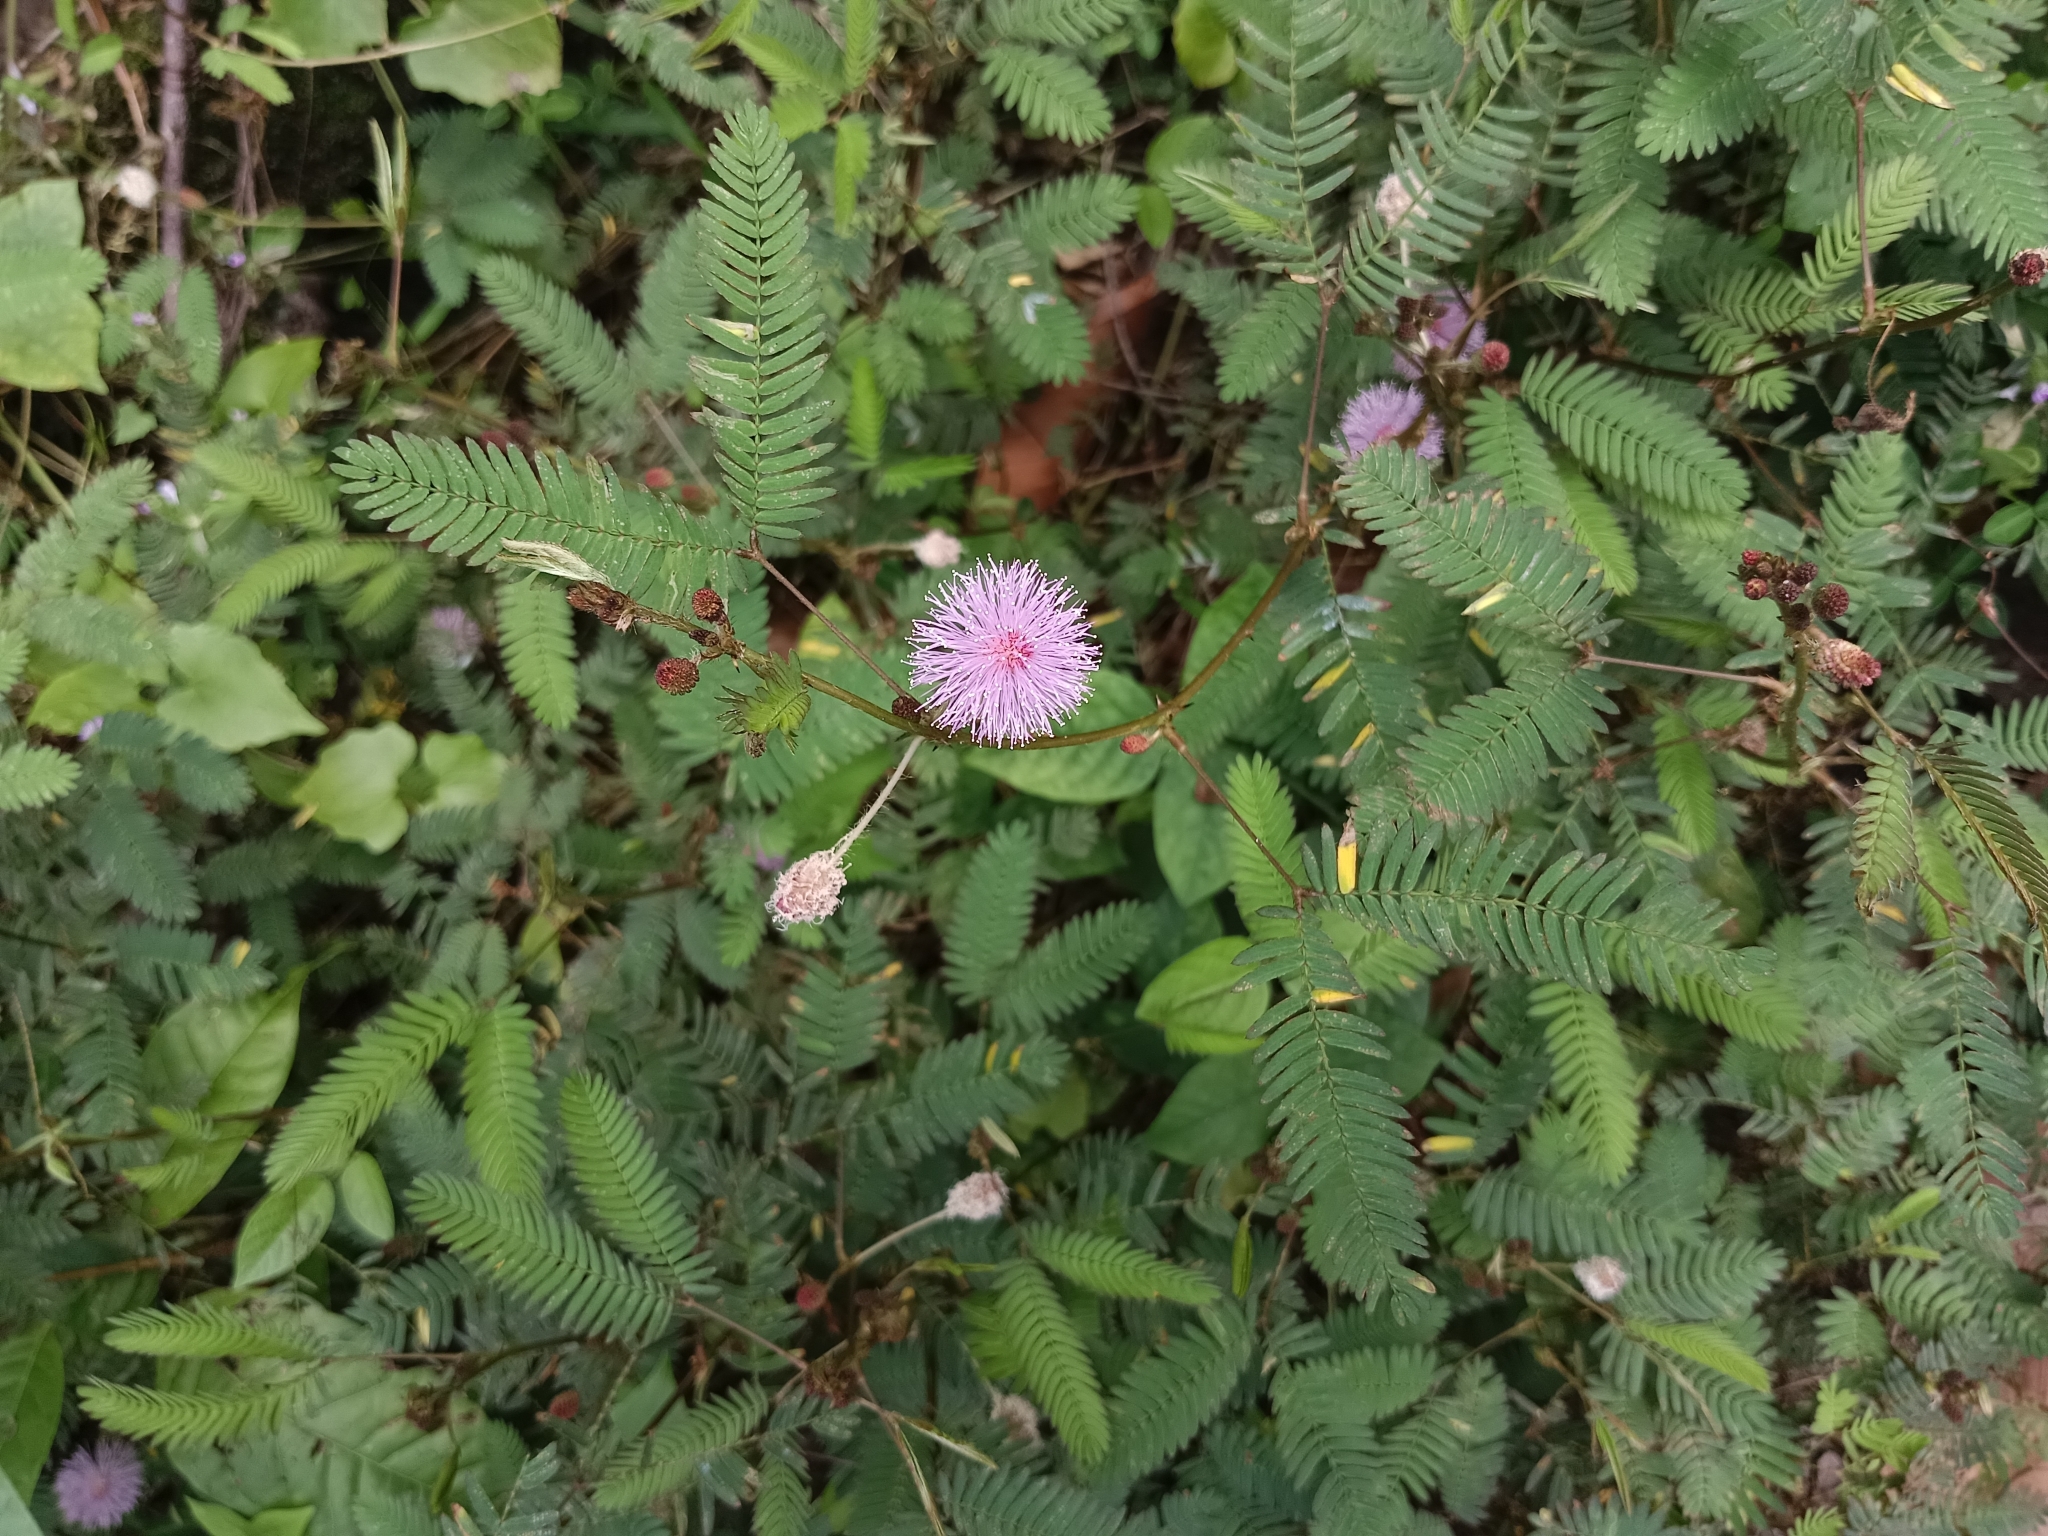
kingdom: Plantae
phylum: Tracheophyta
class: Magnoliopsida
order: Fabales
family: Fabaceae
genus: Mimosa
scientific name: Mimosa pudica
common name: Sensitive plant
